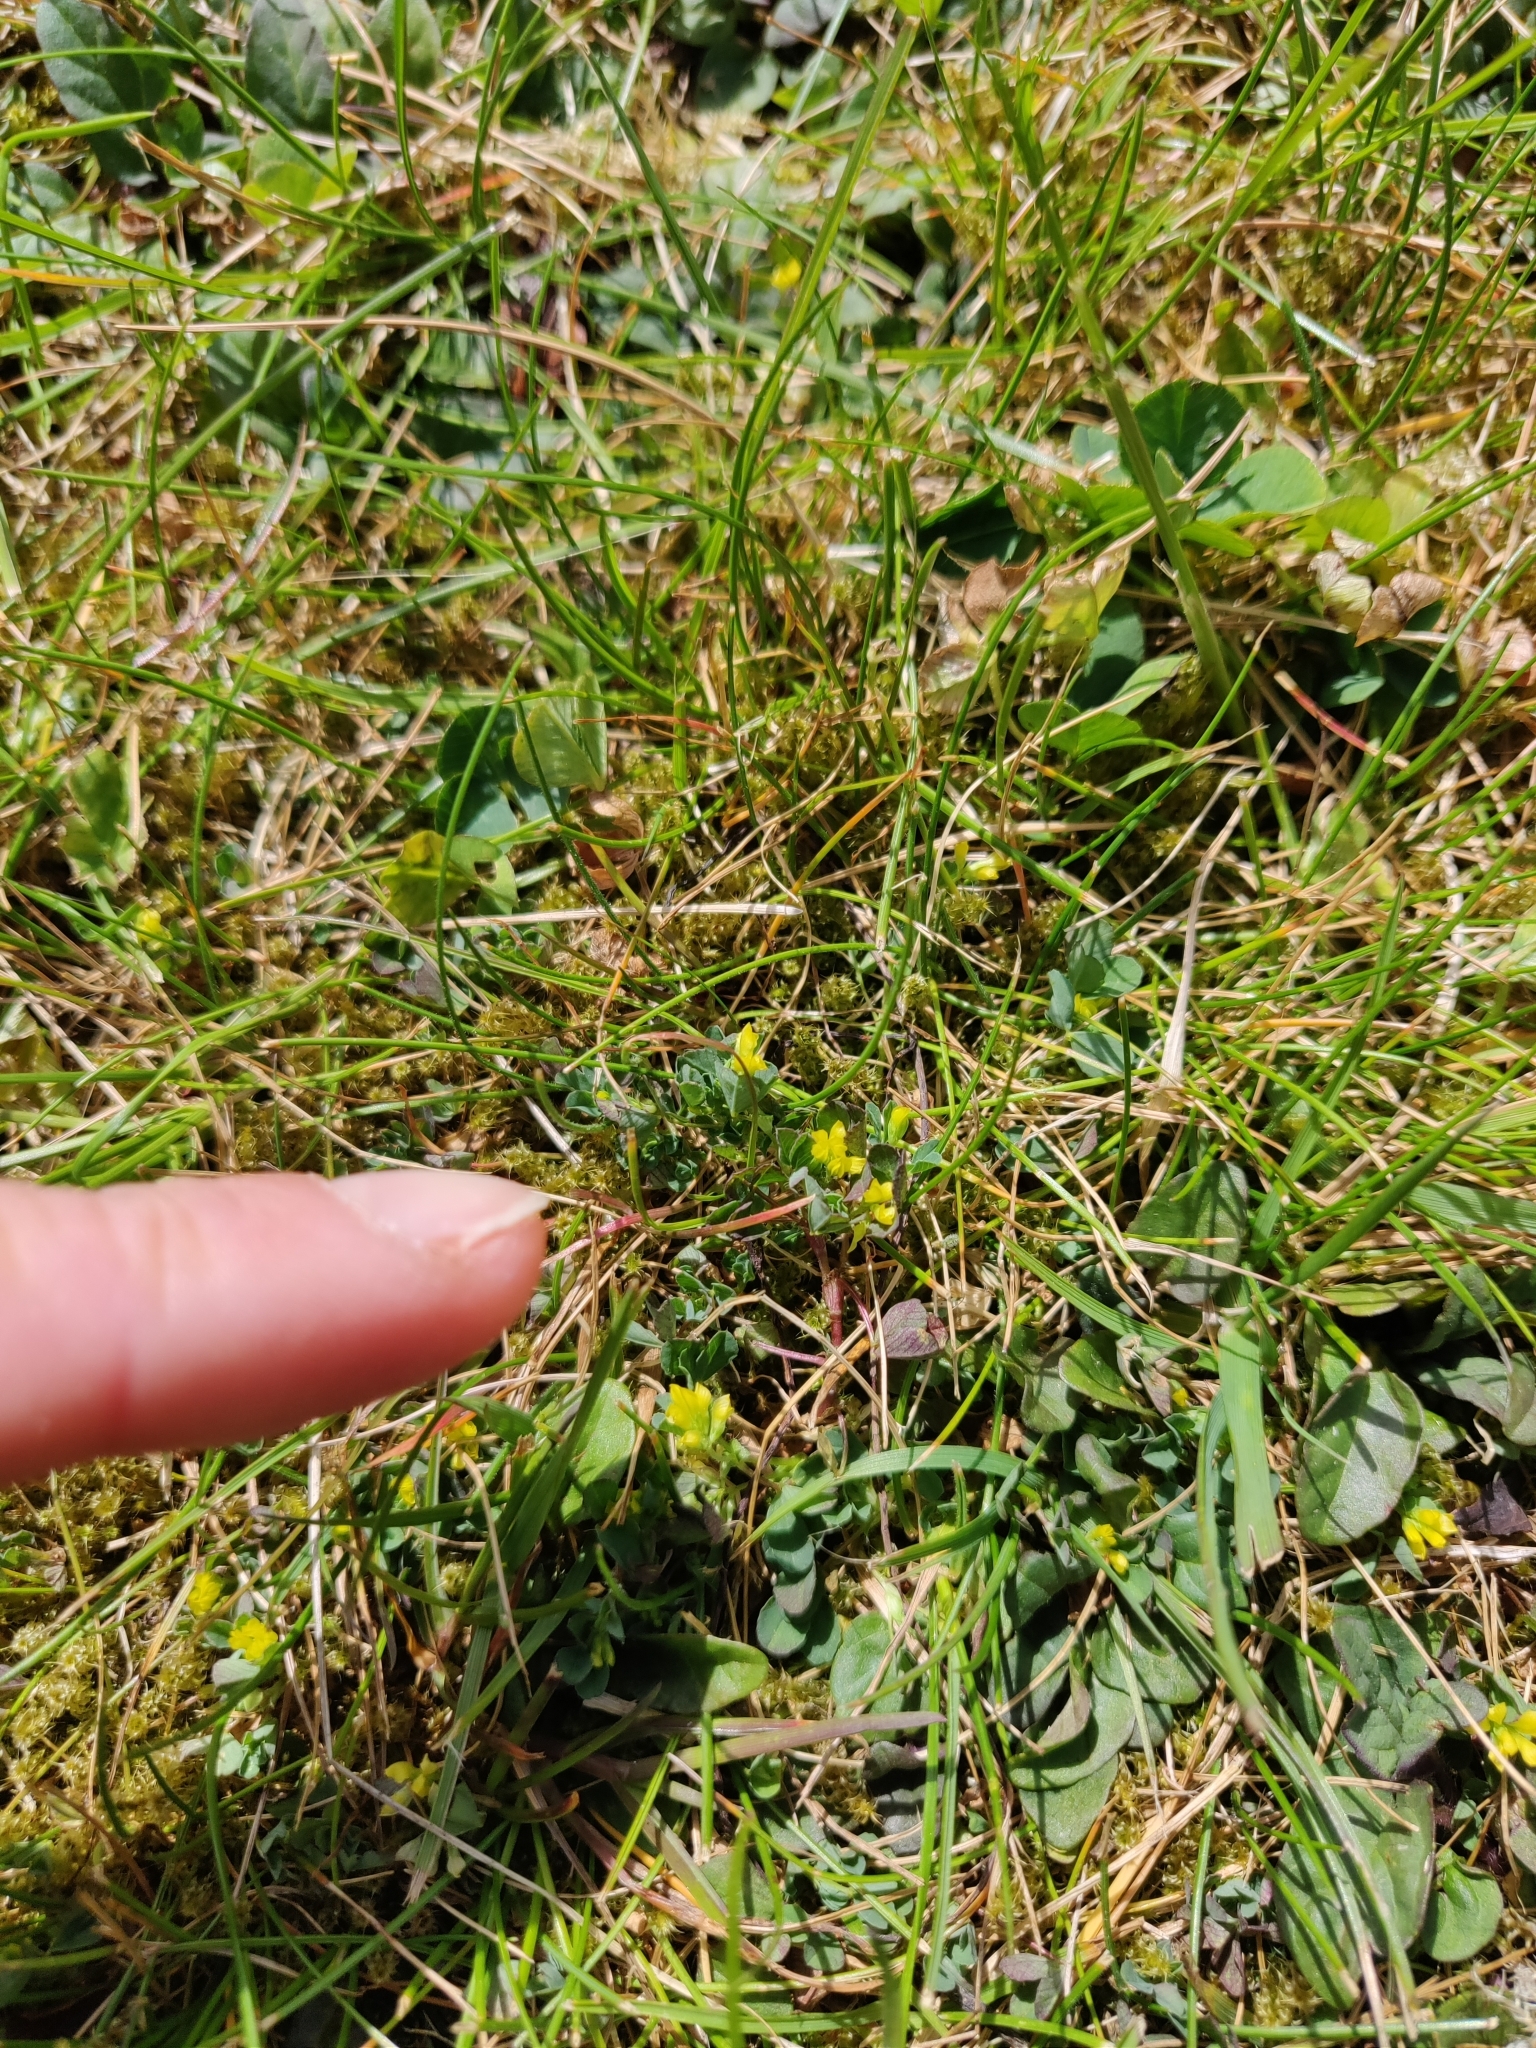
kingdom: Plantae
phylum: Tracheophyta
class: Magnoliopsida
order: Fabales
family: Fabaceae
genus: Medicago
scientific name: Medicago lupulina
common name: Black medick
